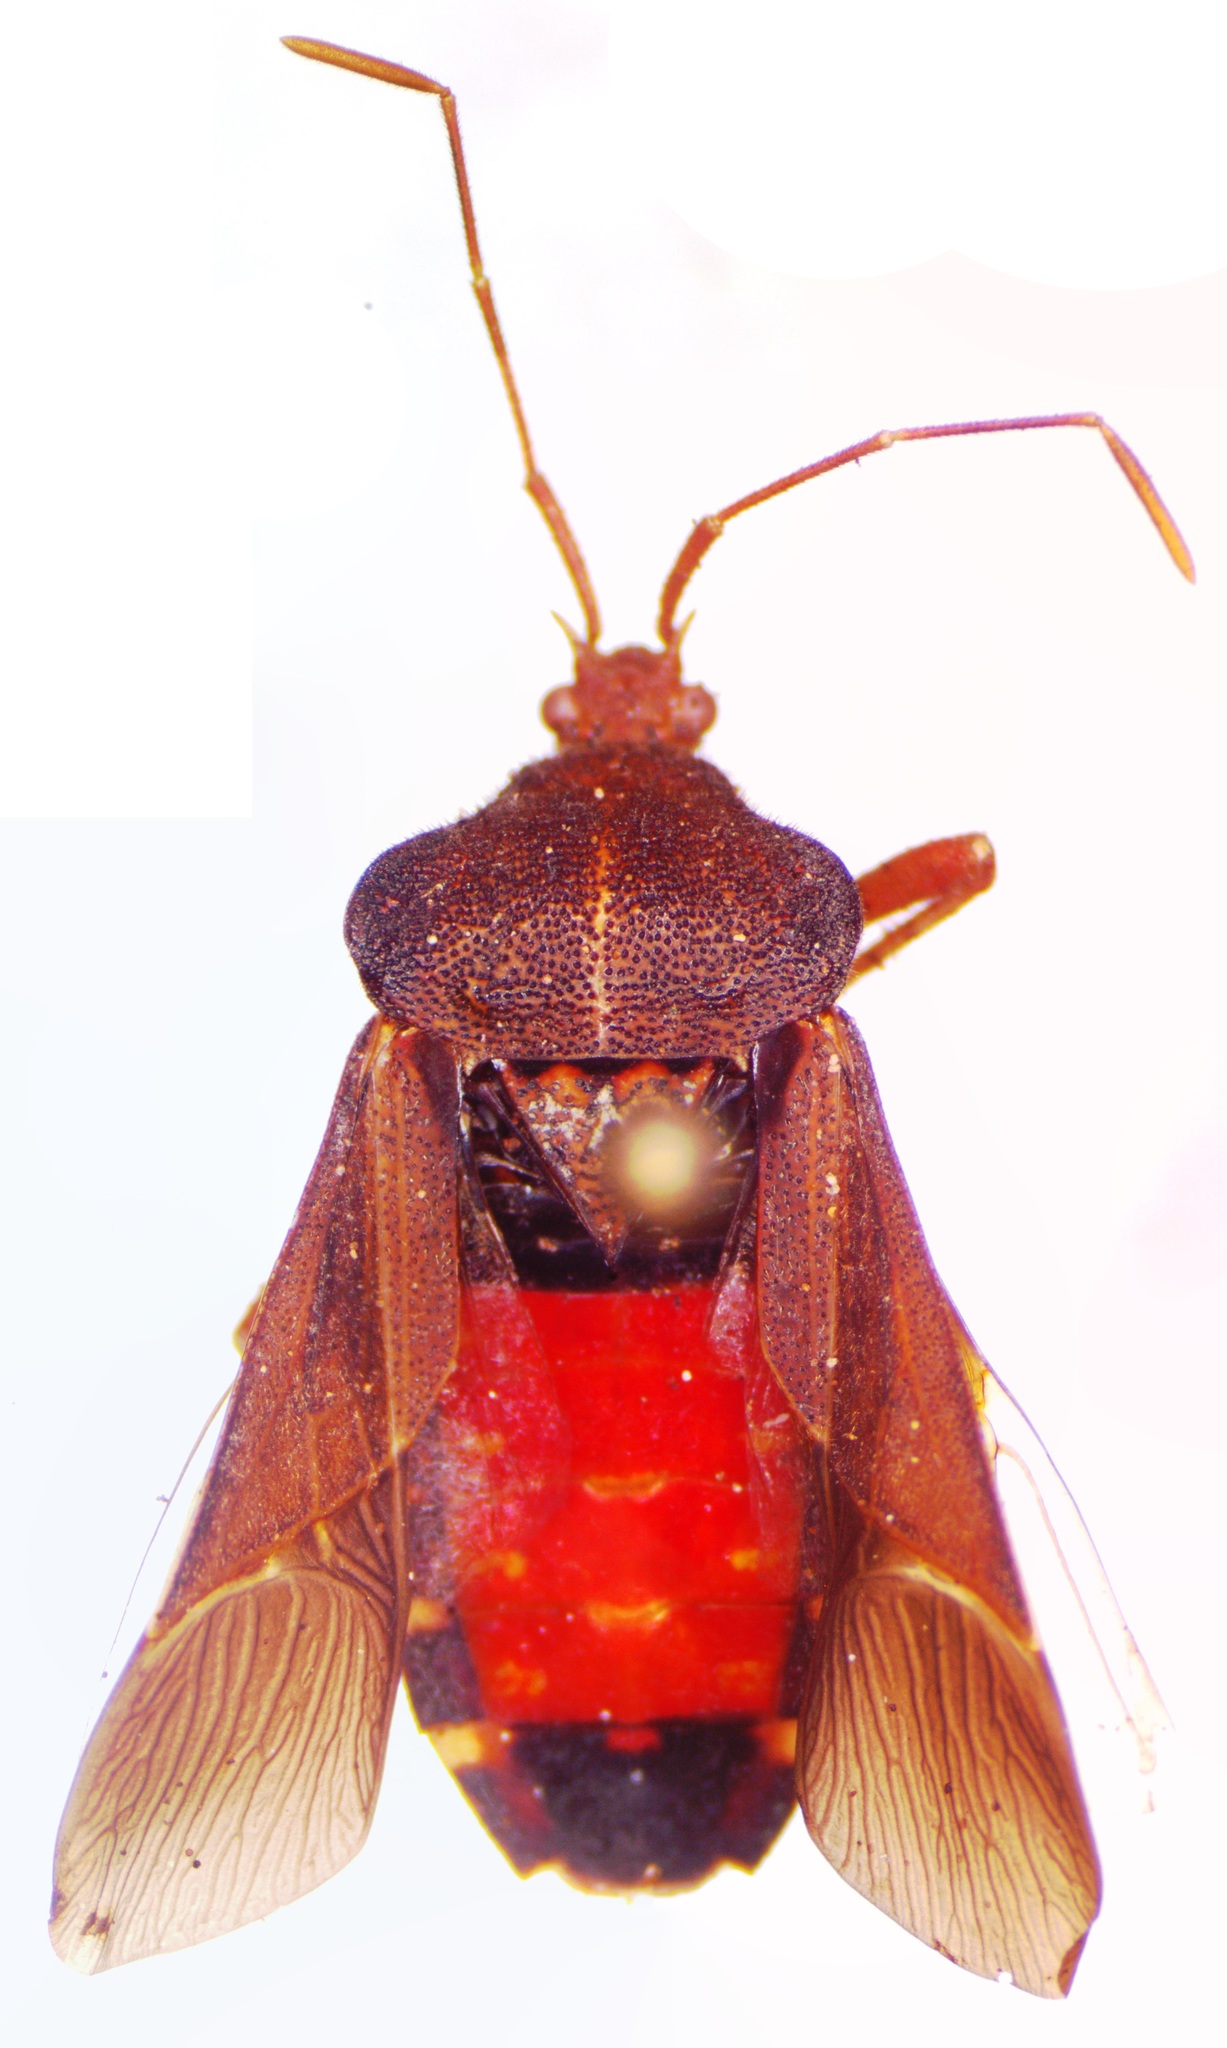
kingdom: Animalia
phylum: Arthropoda
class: Insecta
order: Hemiptera
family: Coreidae
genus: Anasa
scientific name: Anasa scorbutica
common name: Squash bug
